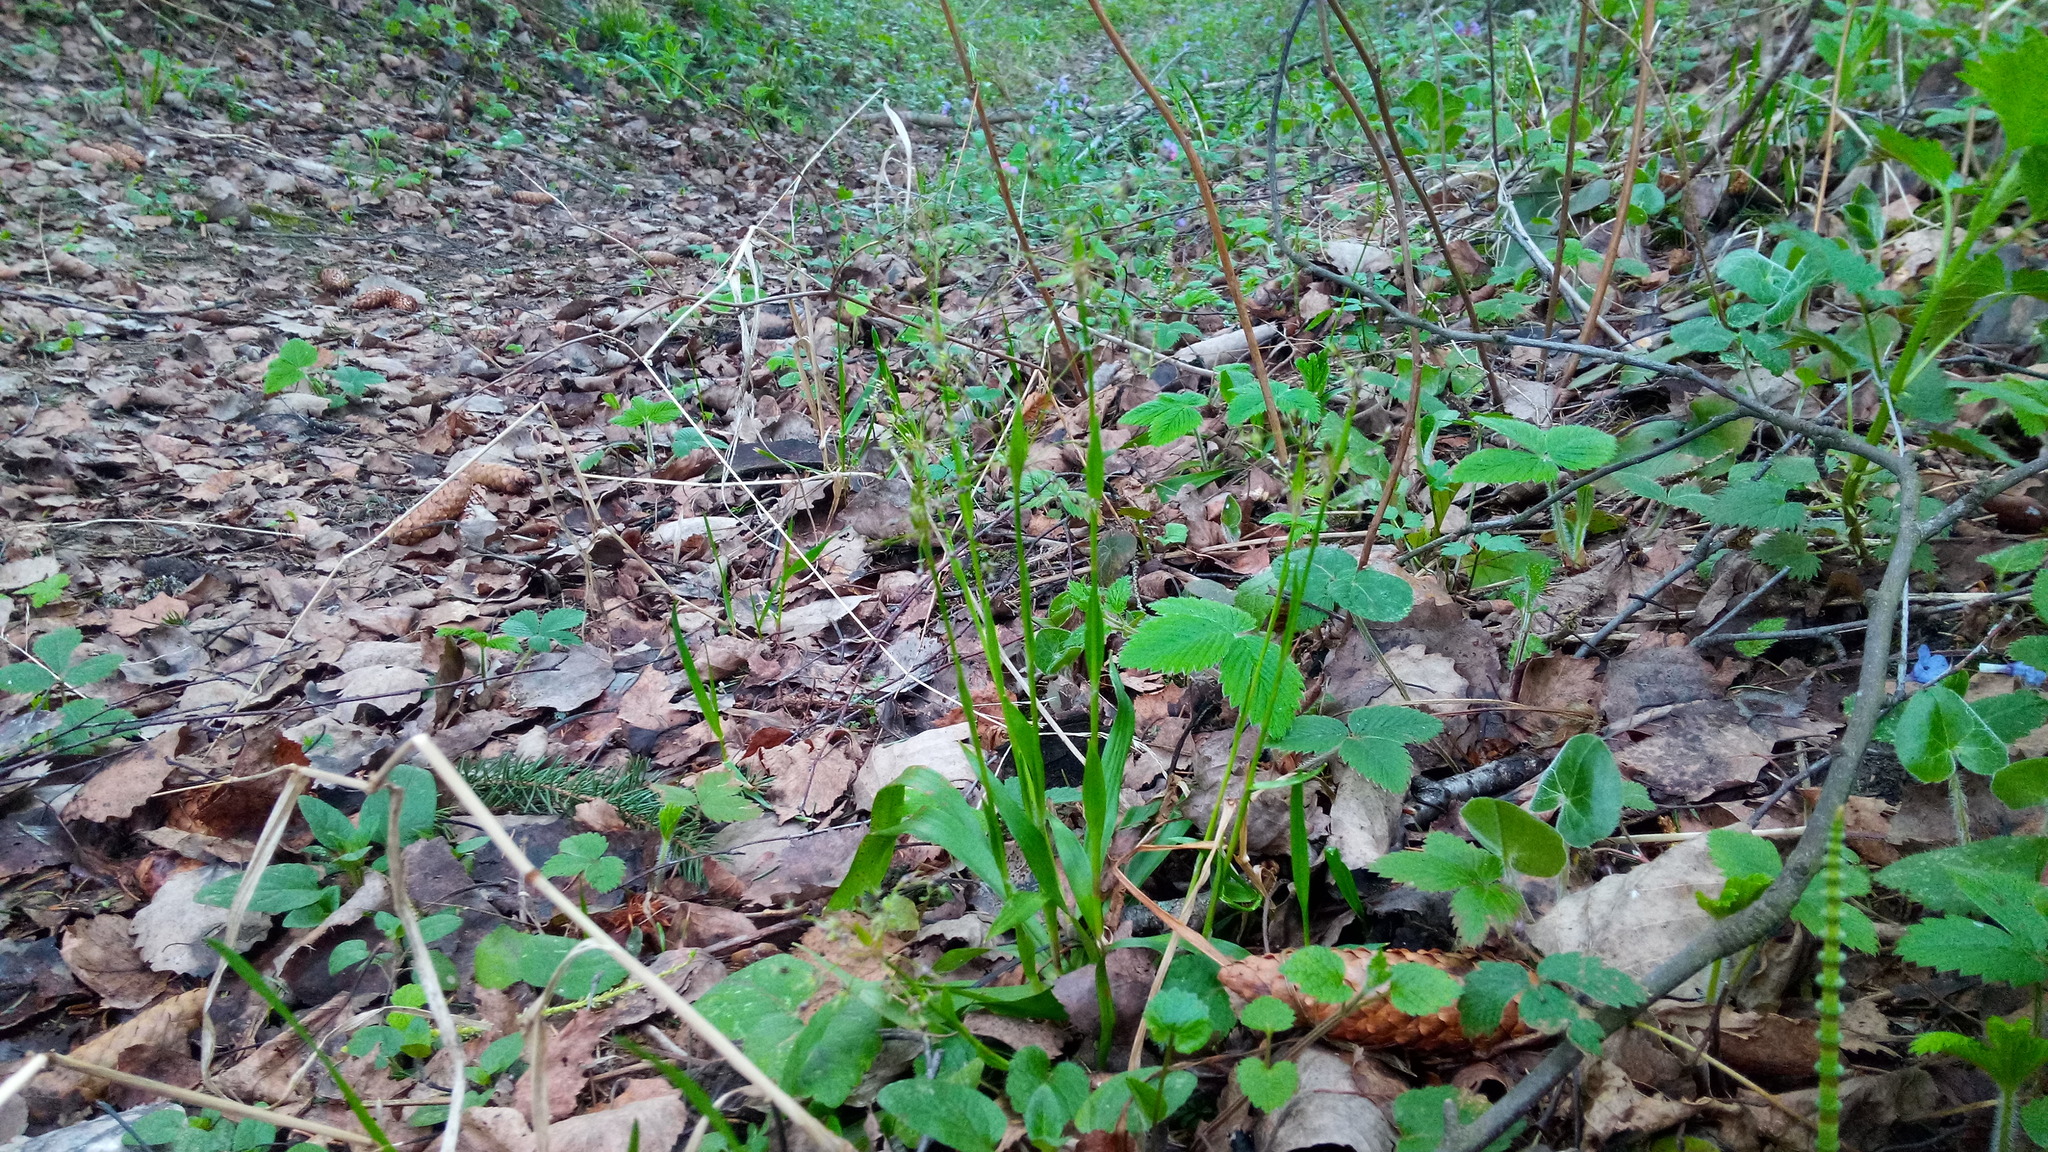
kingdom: Plantae
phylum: Tracheophyta
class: Liliopsida
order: Poales
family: Juncaceae
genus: Luzula
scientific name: Luzula pilosa
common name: Hairy wood-rush
